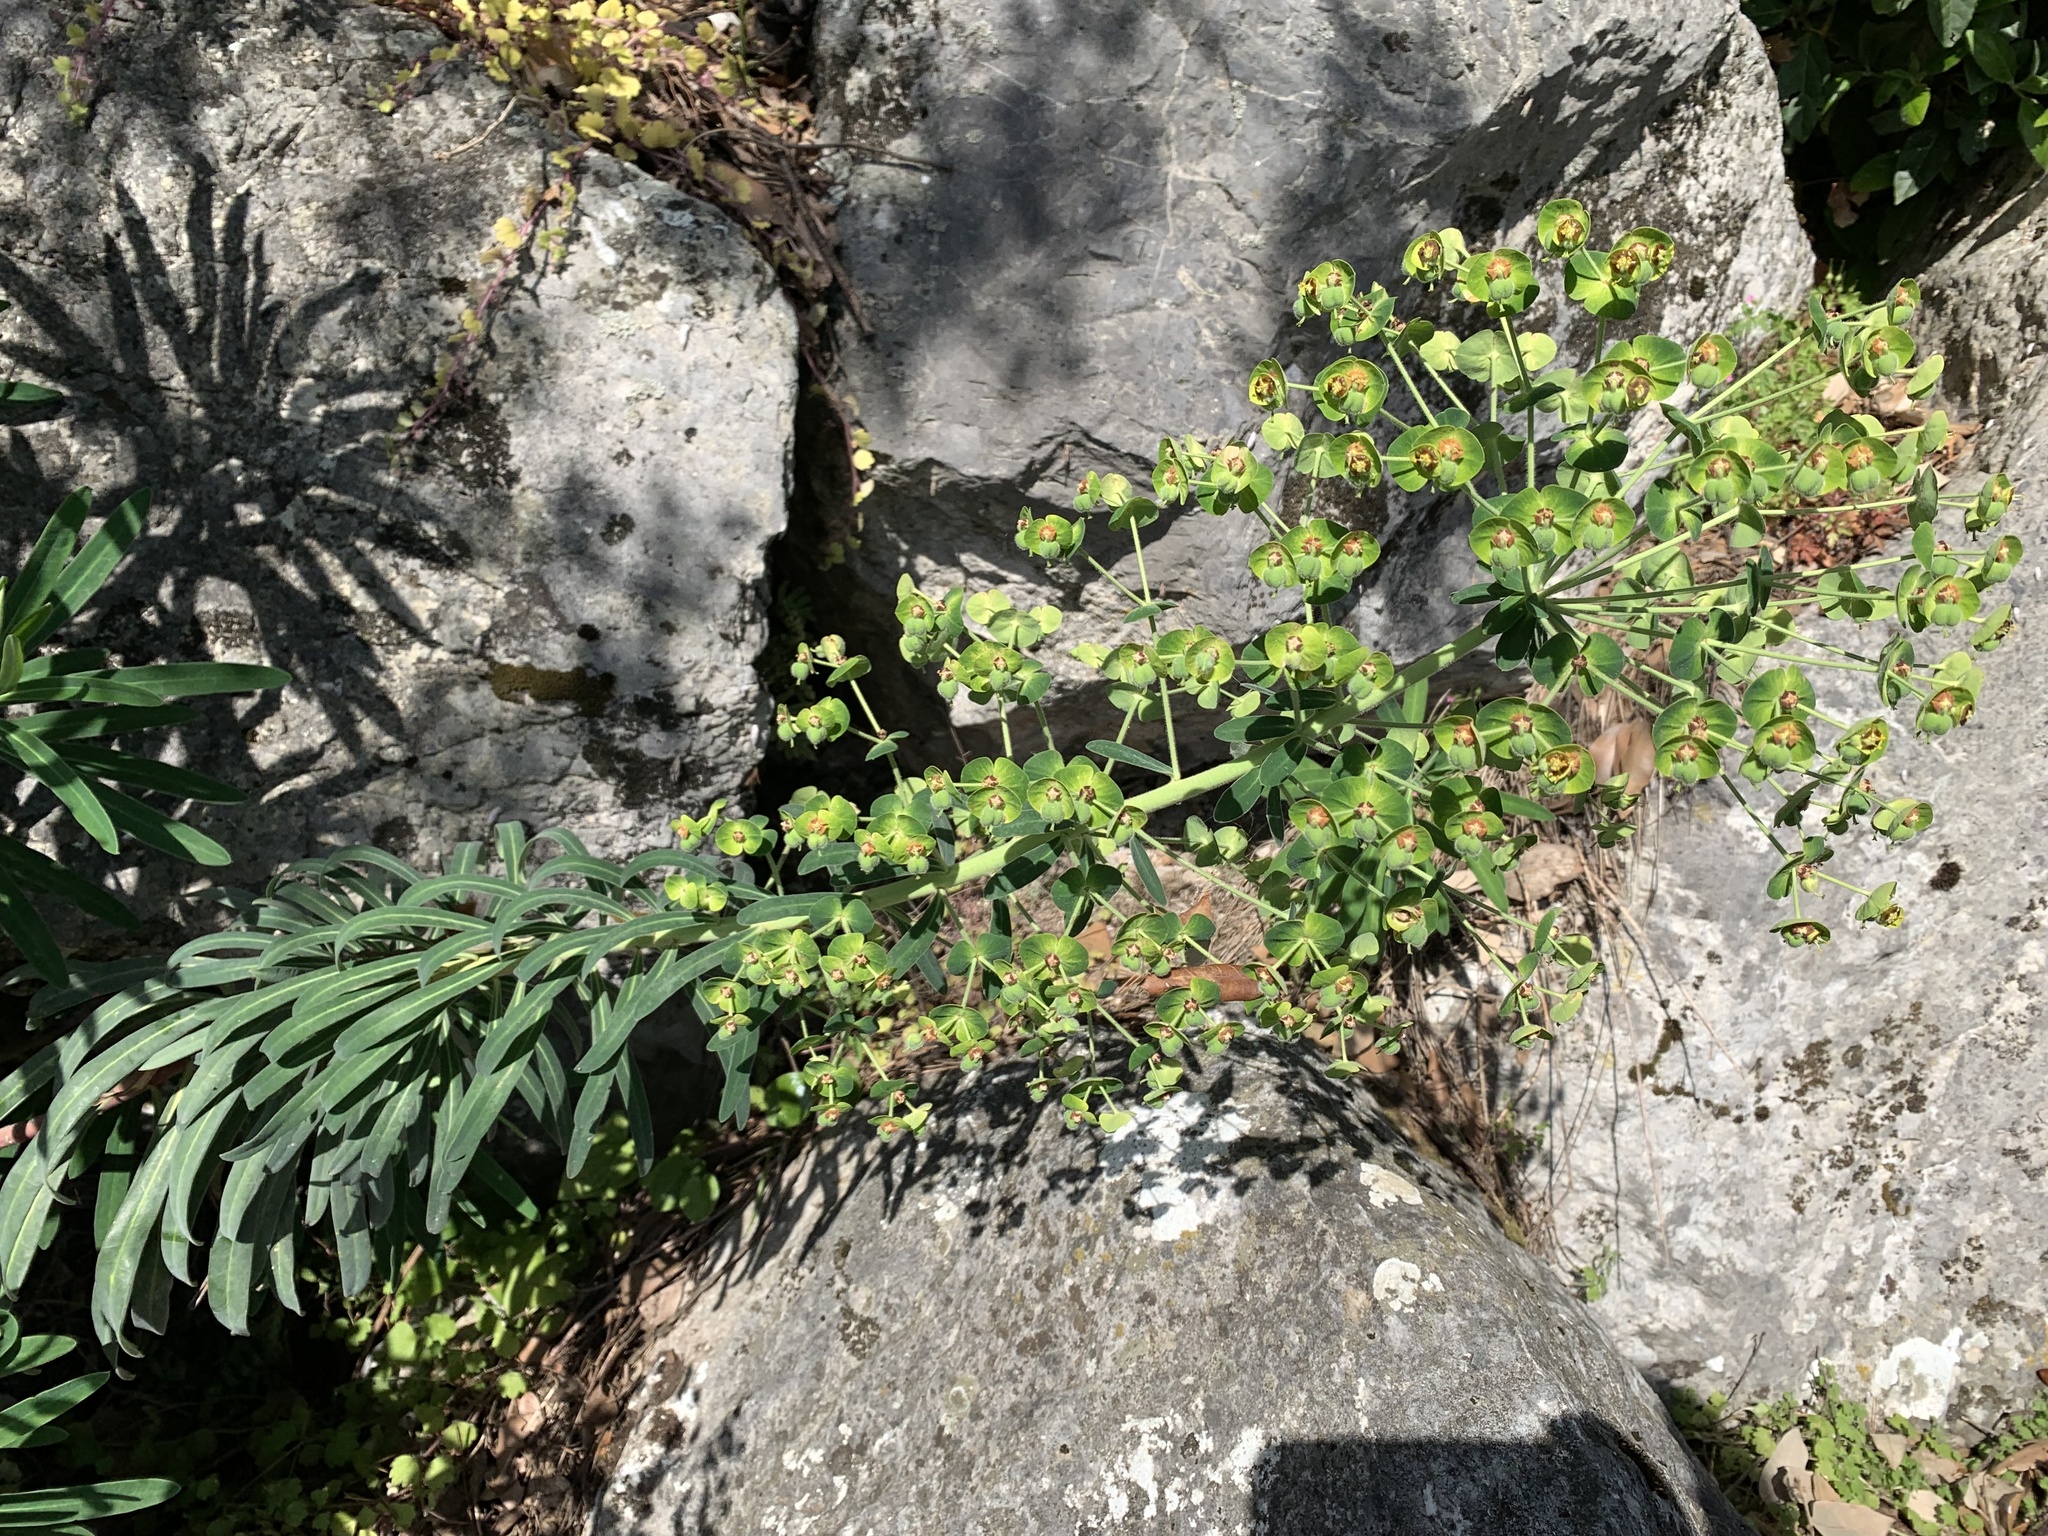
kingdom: Plantae
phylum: Tracheophyta
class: Magnoliopsida
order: Malpighiales
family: Euphorbiaceae
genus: Euphorbia
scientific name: Euphorbia characias
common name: Mediterranean spurge
